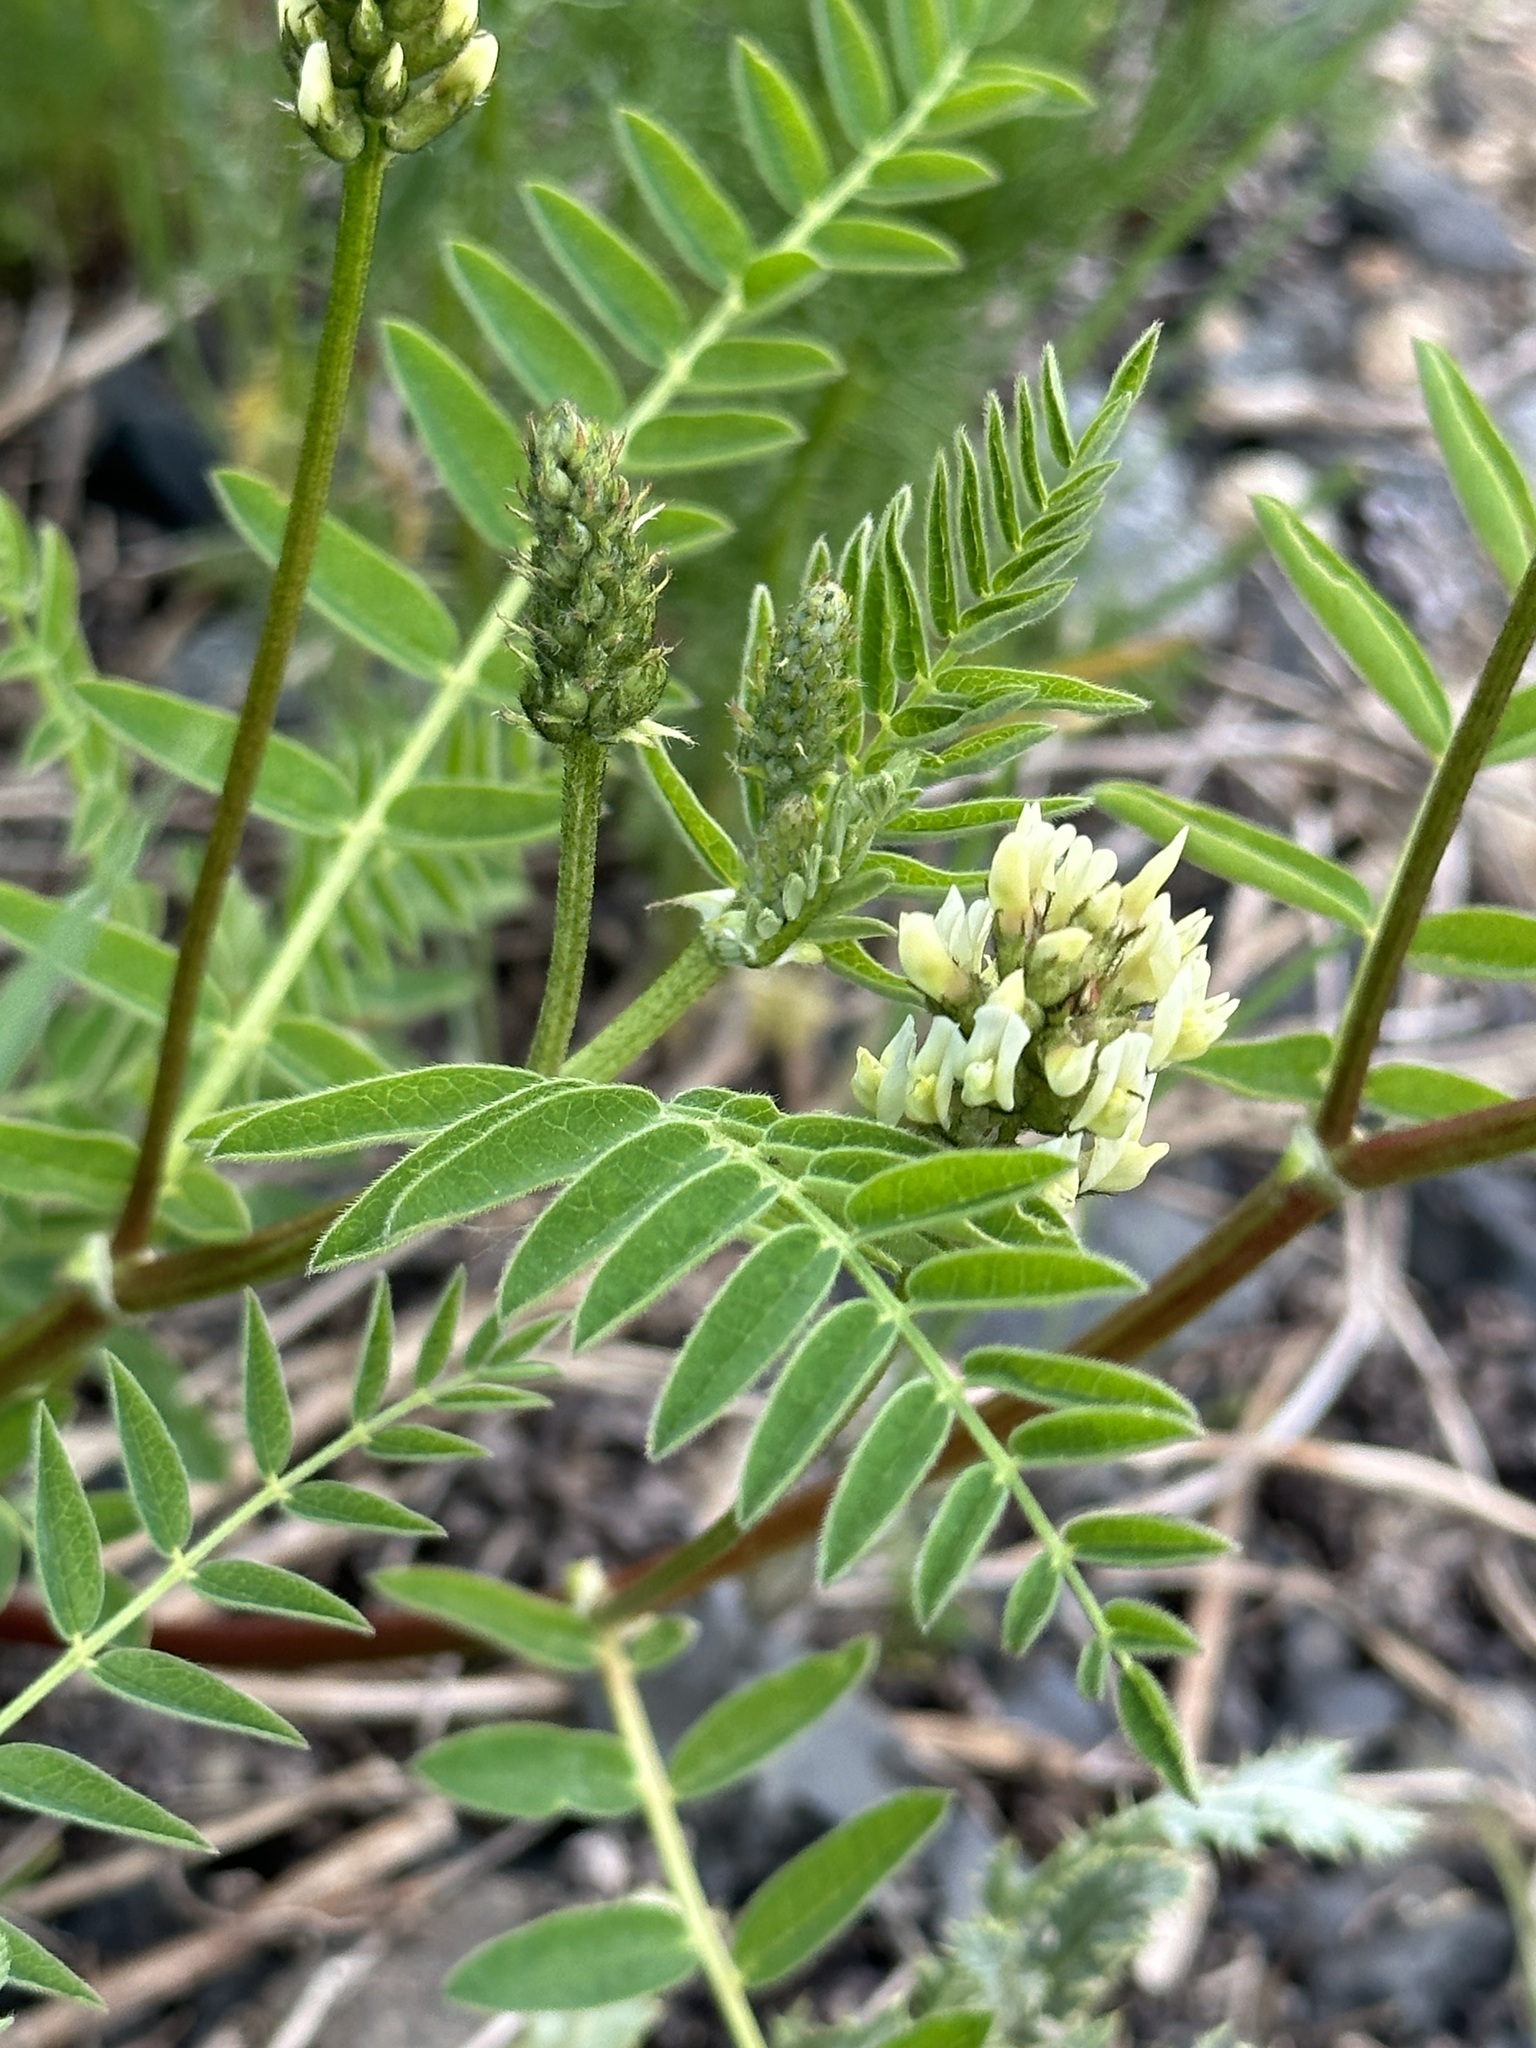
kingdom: Plantae
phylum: Tracheophyta
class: Magnoliopsida
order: Fabales
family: Fabaceae
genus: Astragalus
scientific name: Astragalus cicer
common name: Chick-pea milk-vetch
